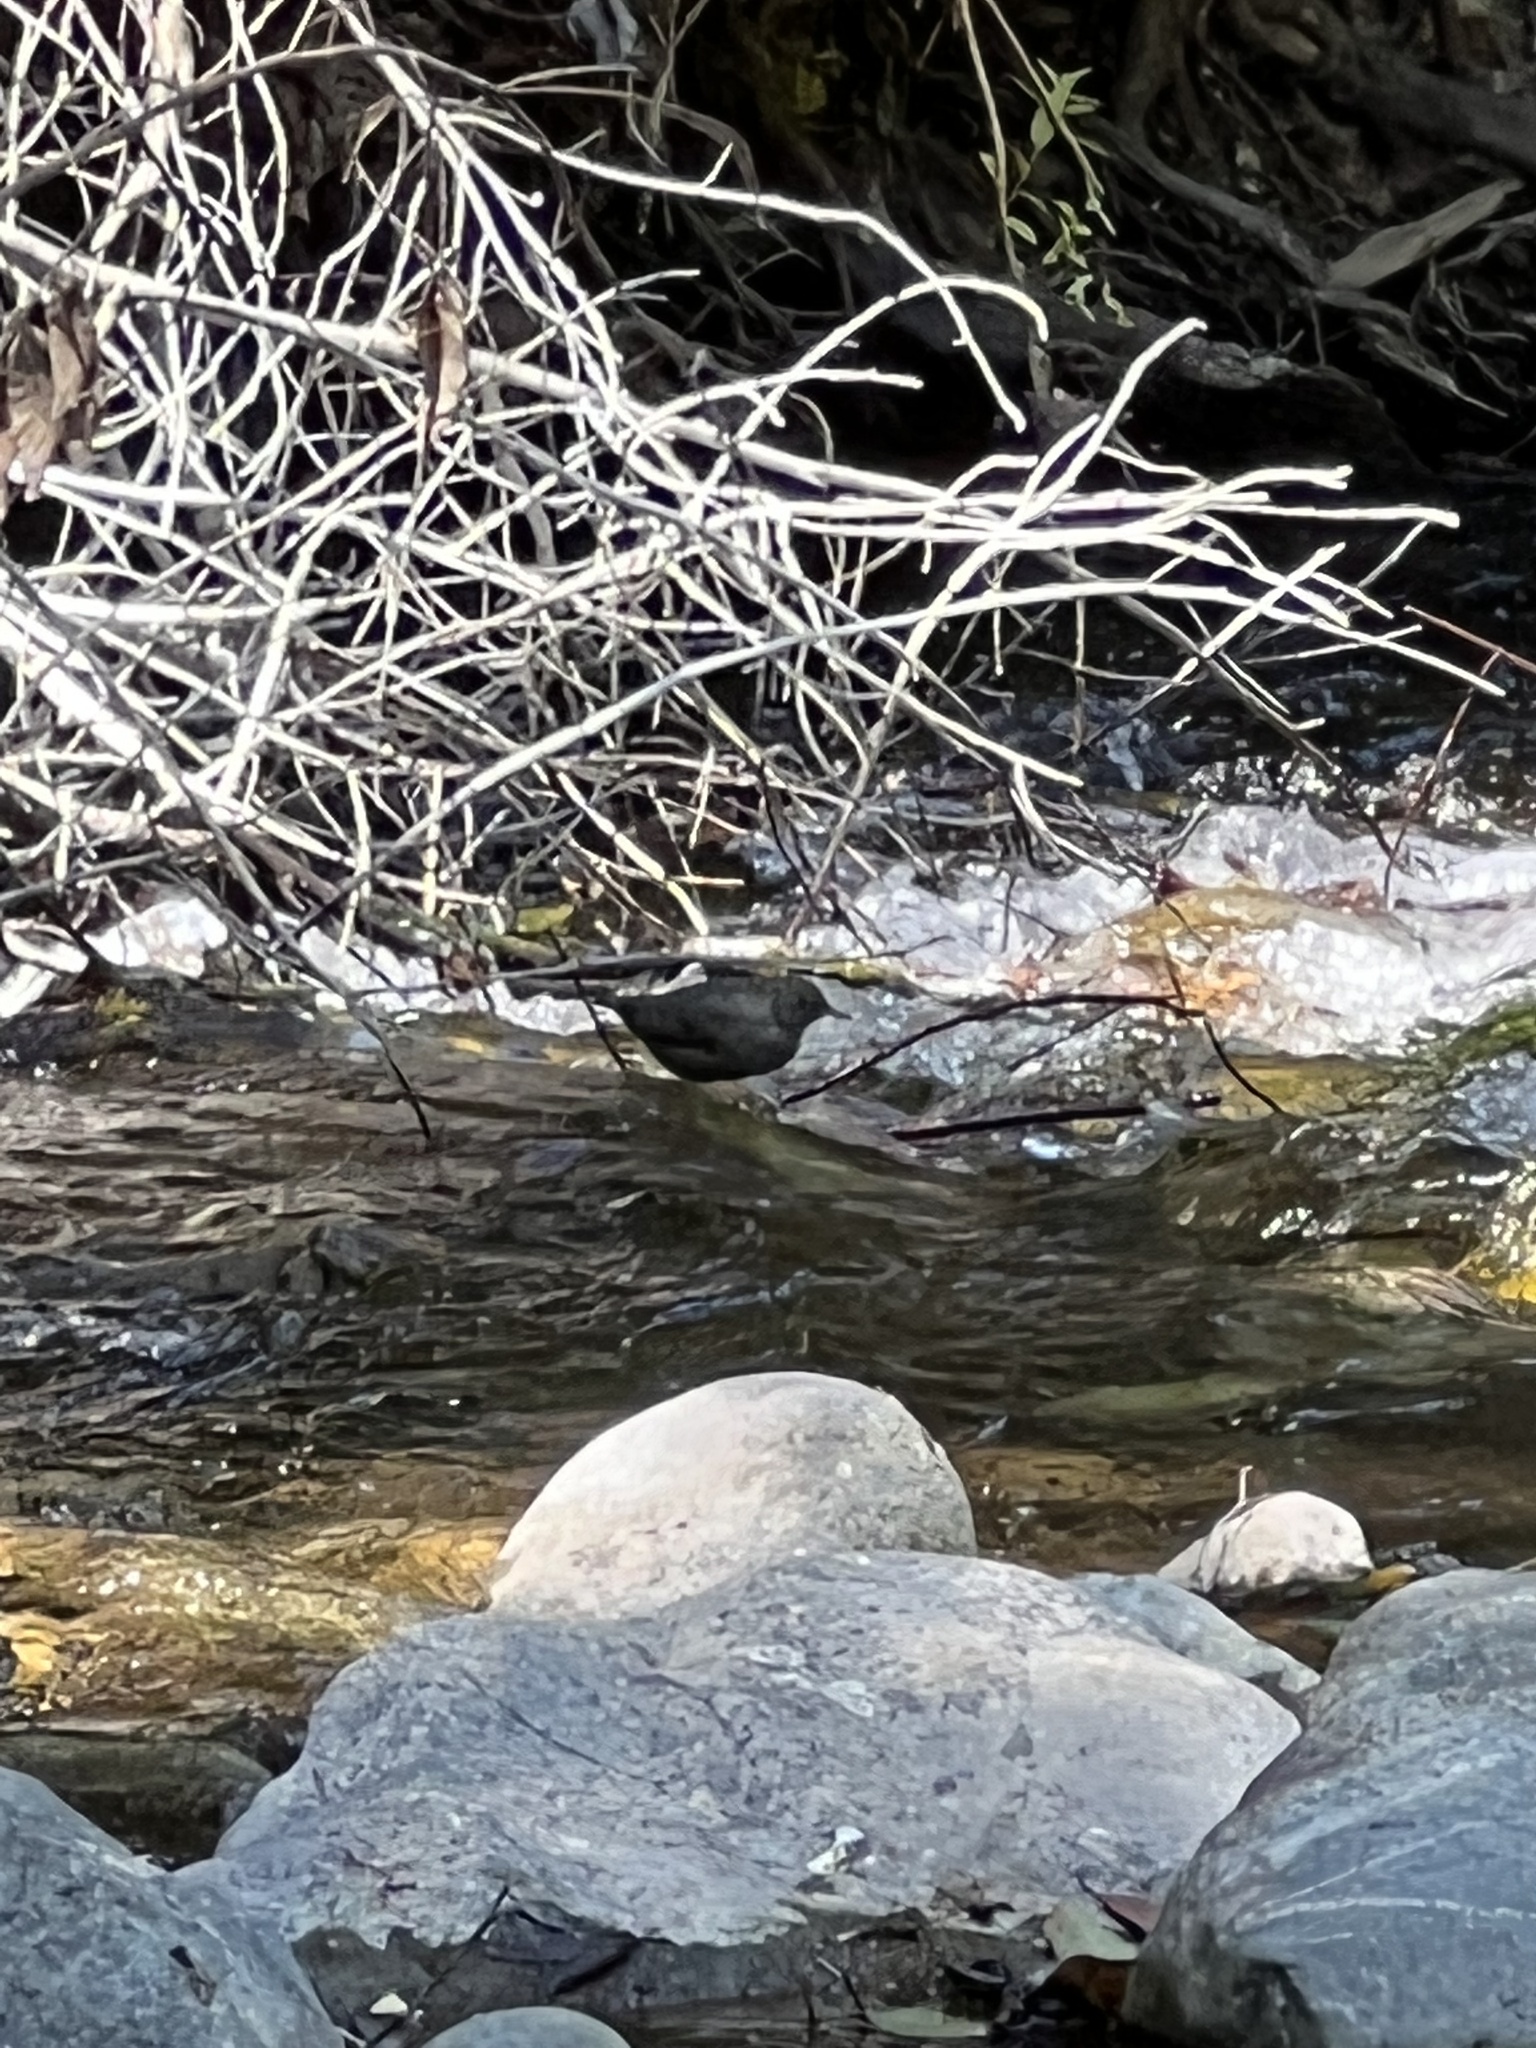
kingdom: Animalia
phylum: Chordata
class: Aves
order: Passeriformes
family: Cinclidae
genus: Cinclus
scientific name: Cinclus mexicanus
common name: American dipper
